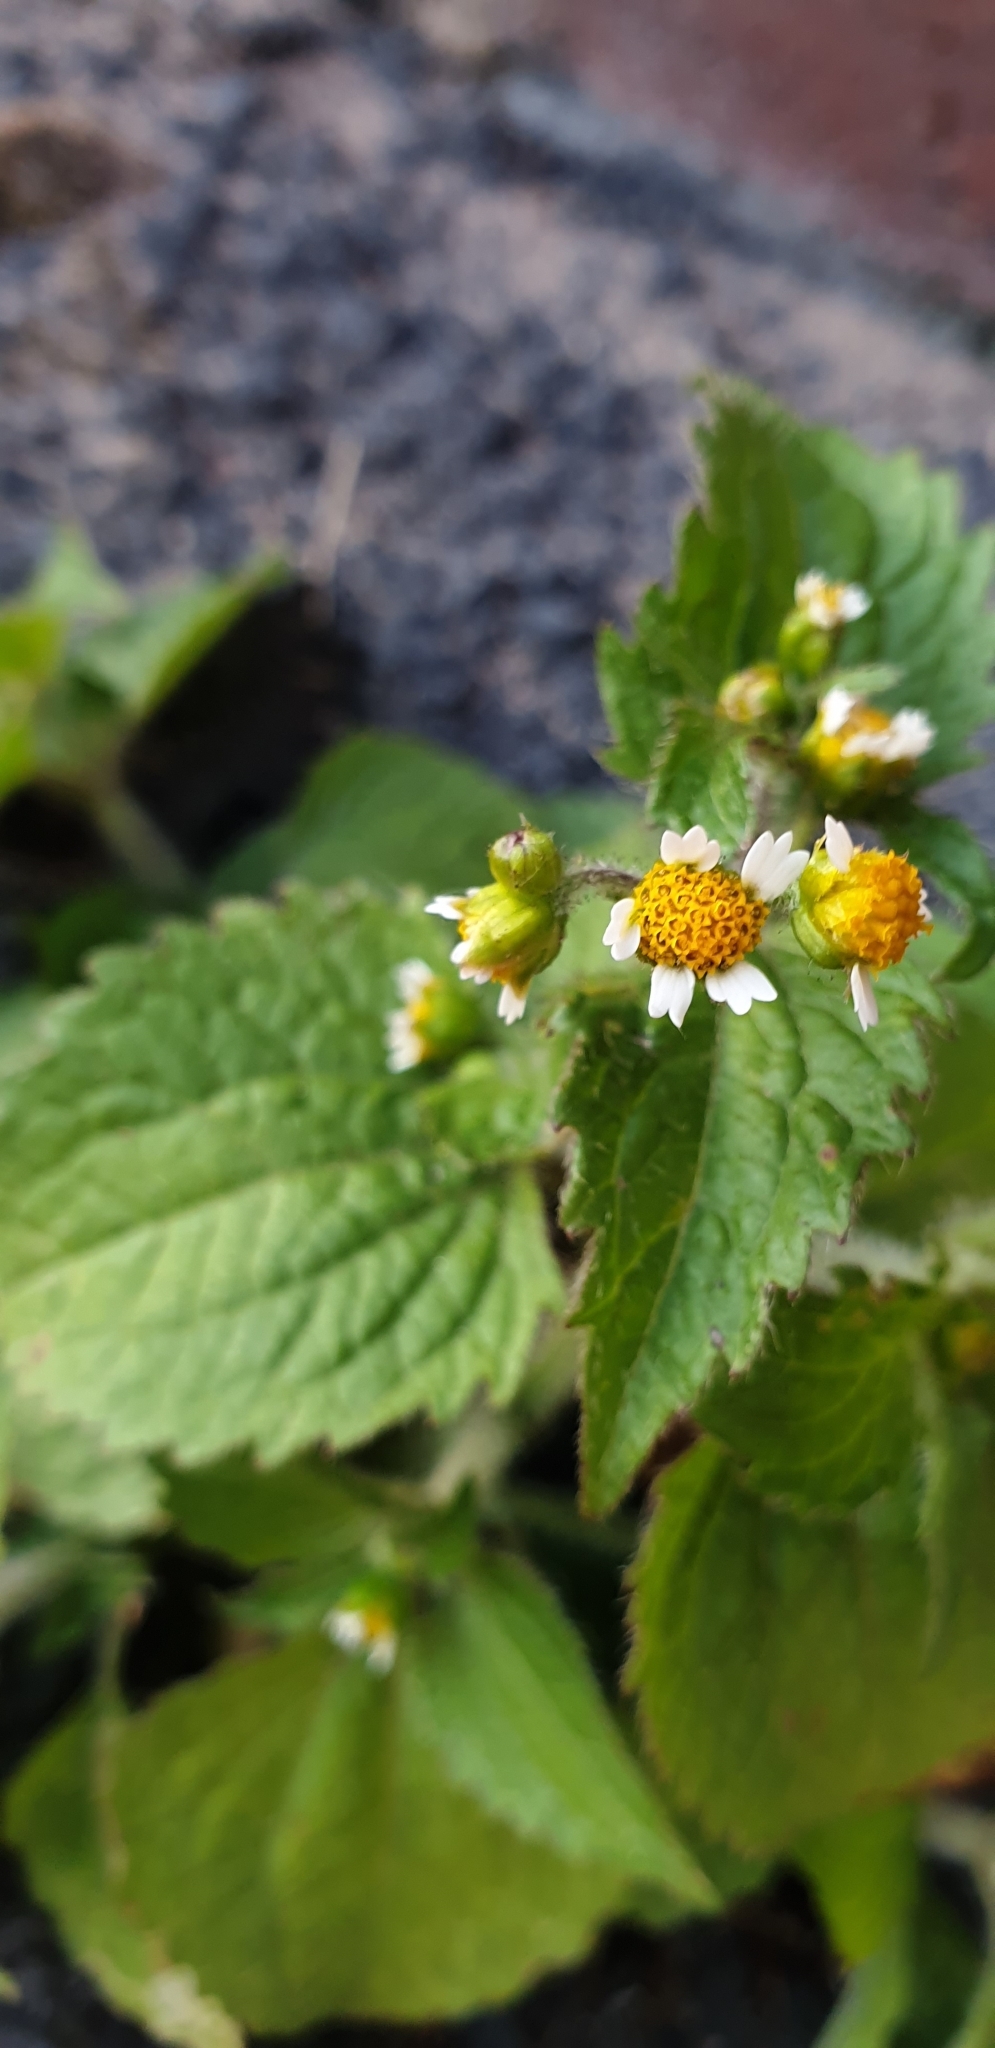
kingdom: Plantae
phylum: Tracheophyta
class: Magnoliopsida
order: Asterales
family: Asteraceae
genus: Galinsoga
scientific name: Galinsoga quadriradiata
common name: Shaggy soldier
